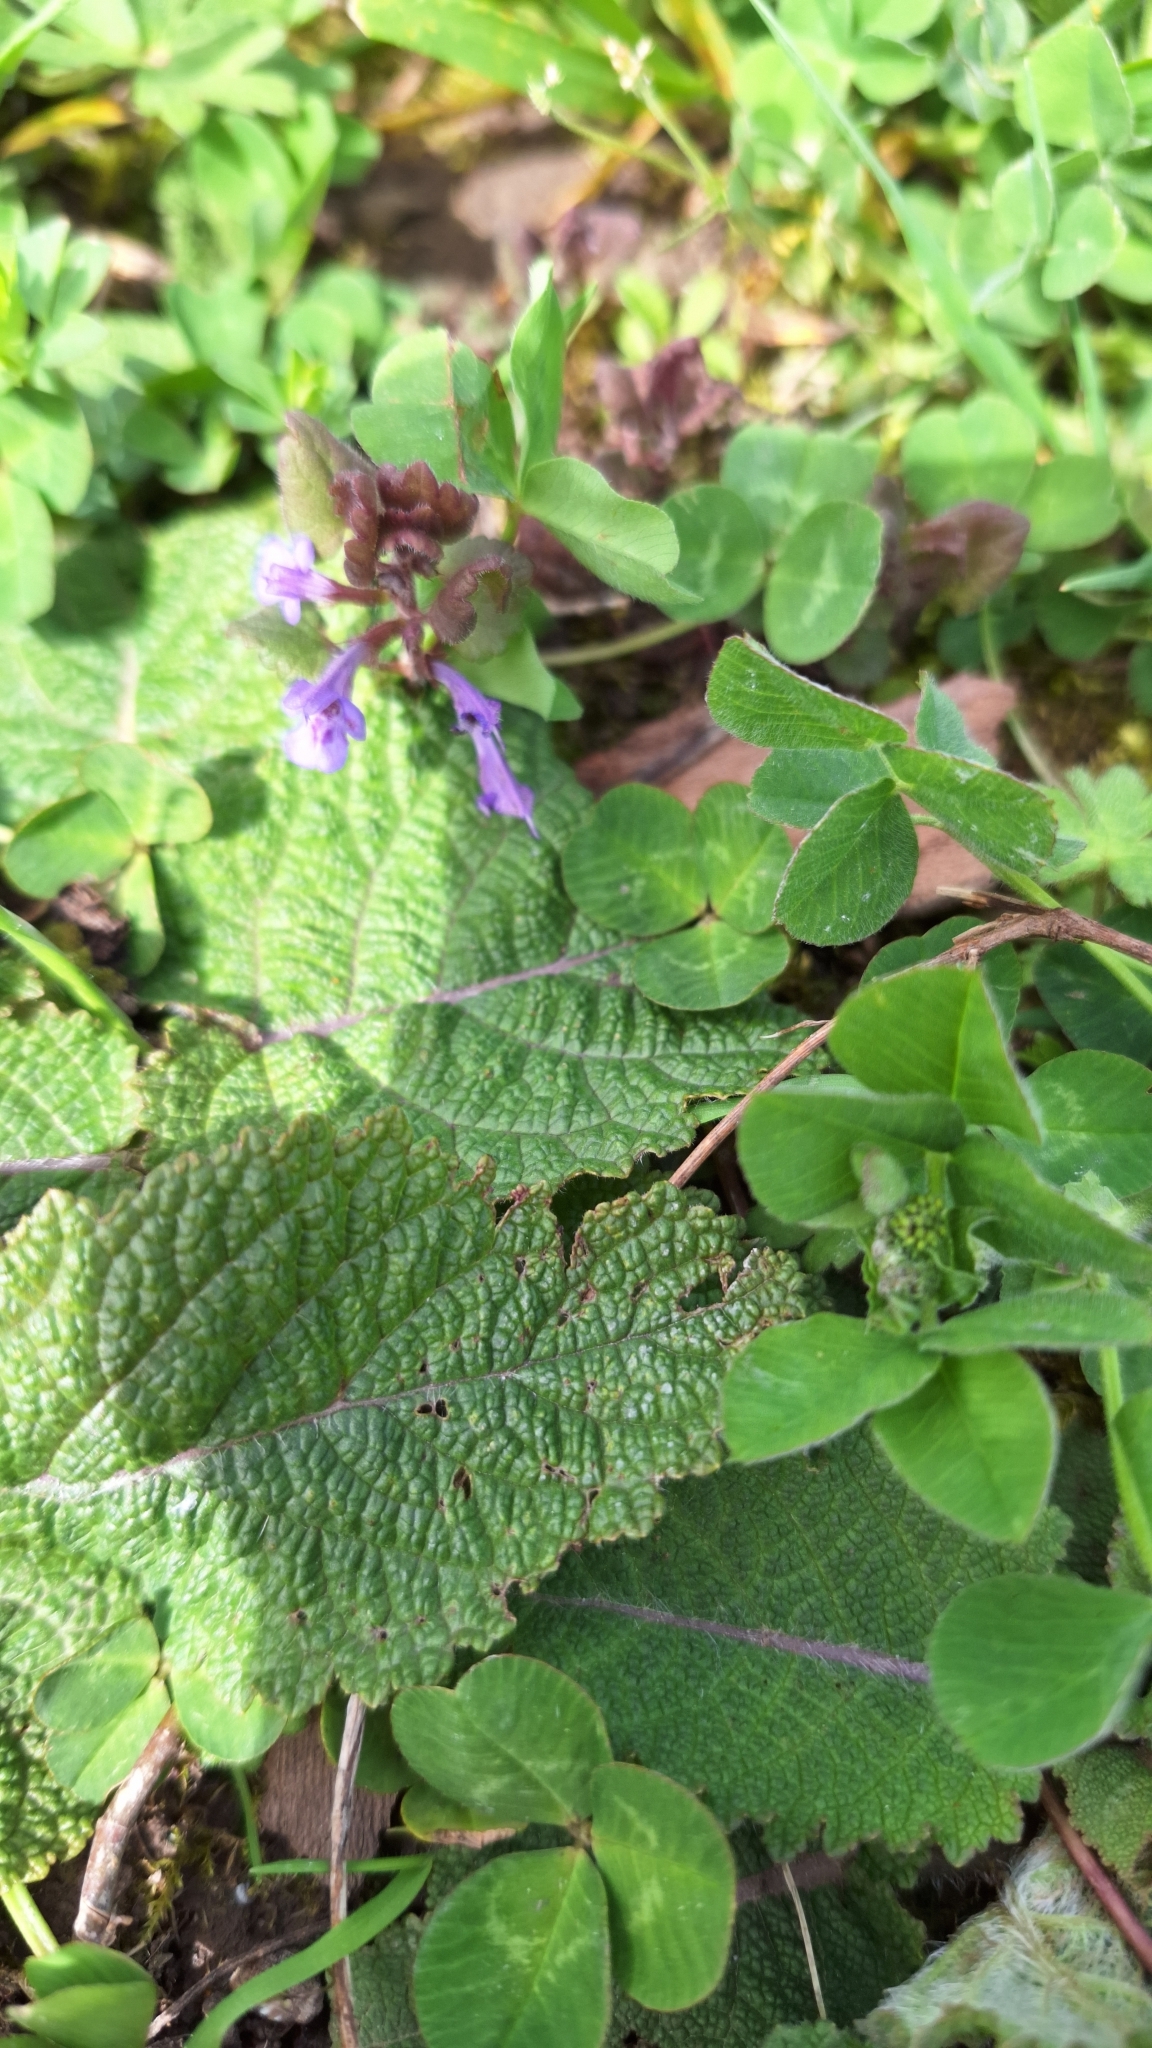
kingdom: Plantae
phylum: Tracheophyta
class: Magnoliopsida
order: Lamiales
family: Lamiaceae
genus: Glechoma
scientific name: Glechoma hederacea
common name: Ground ivy
